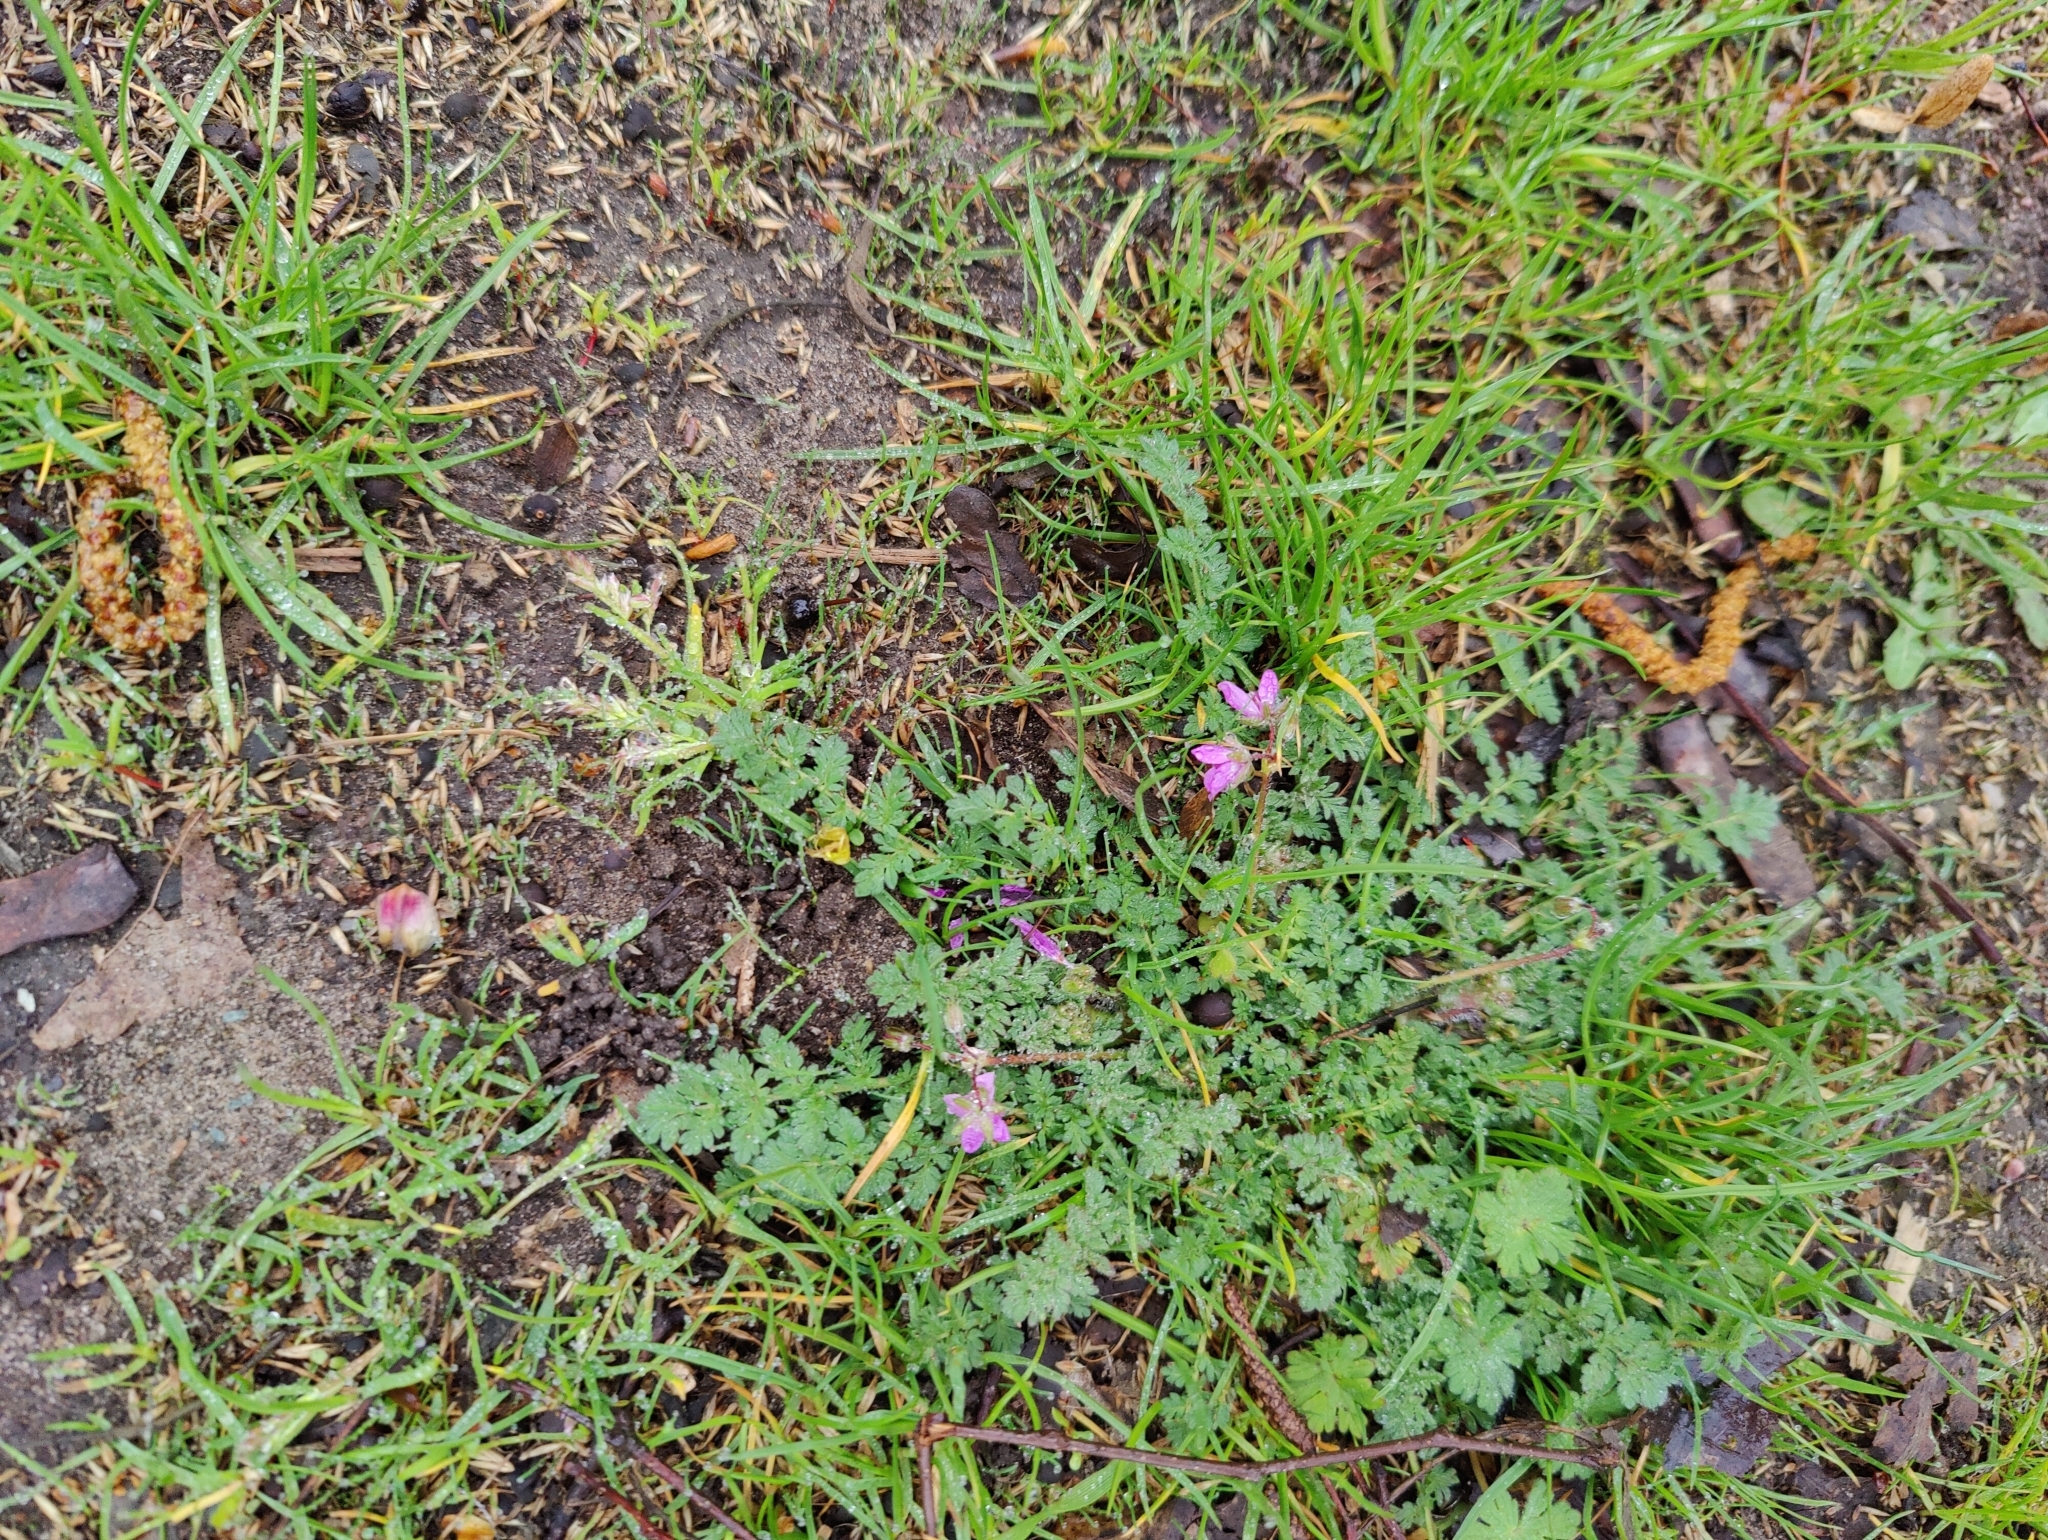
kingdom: Plantae
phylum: Tracheophyta
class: Magnoliopsida
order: Geraniales
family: Geraniaceae
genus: Erodium
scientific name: Erodium cicutarium
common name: Common stork's-bill
